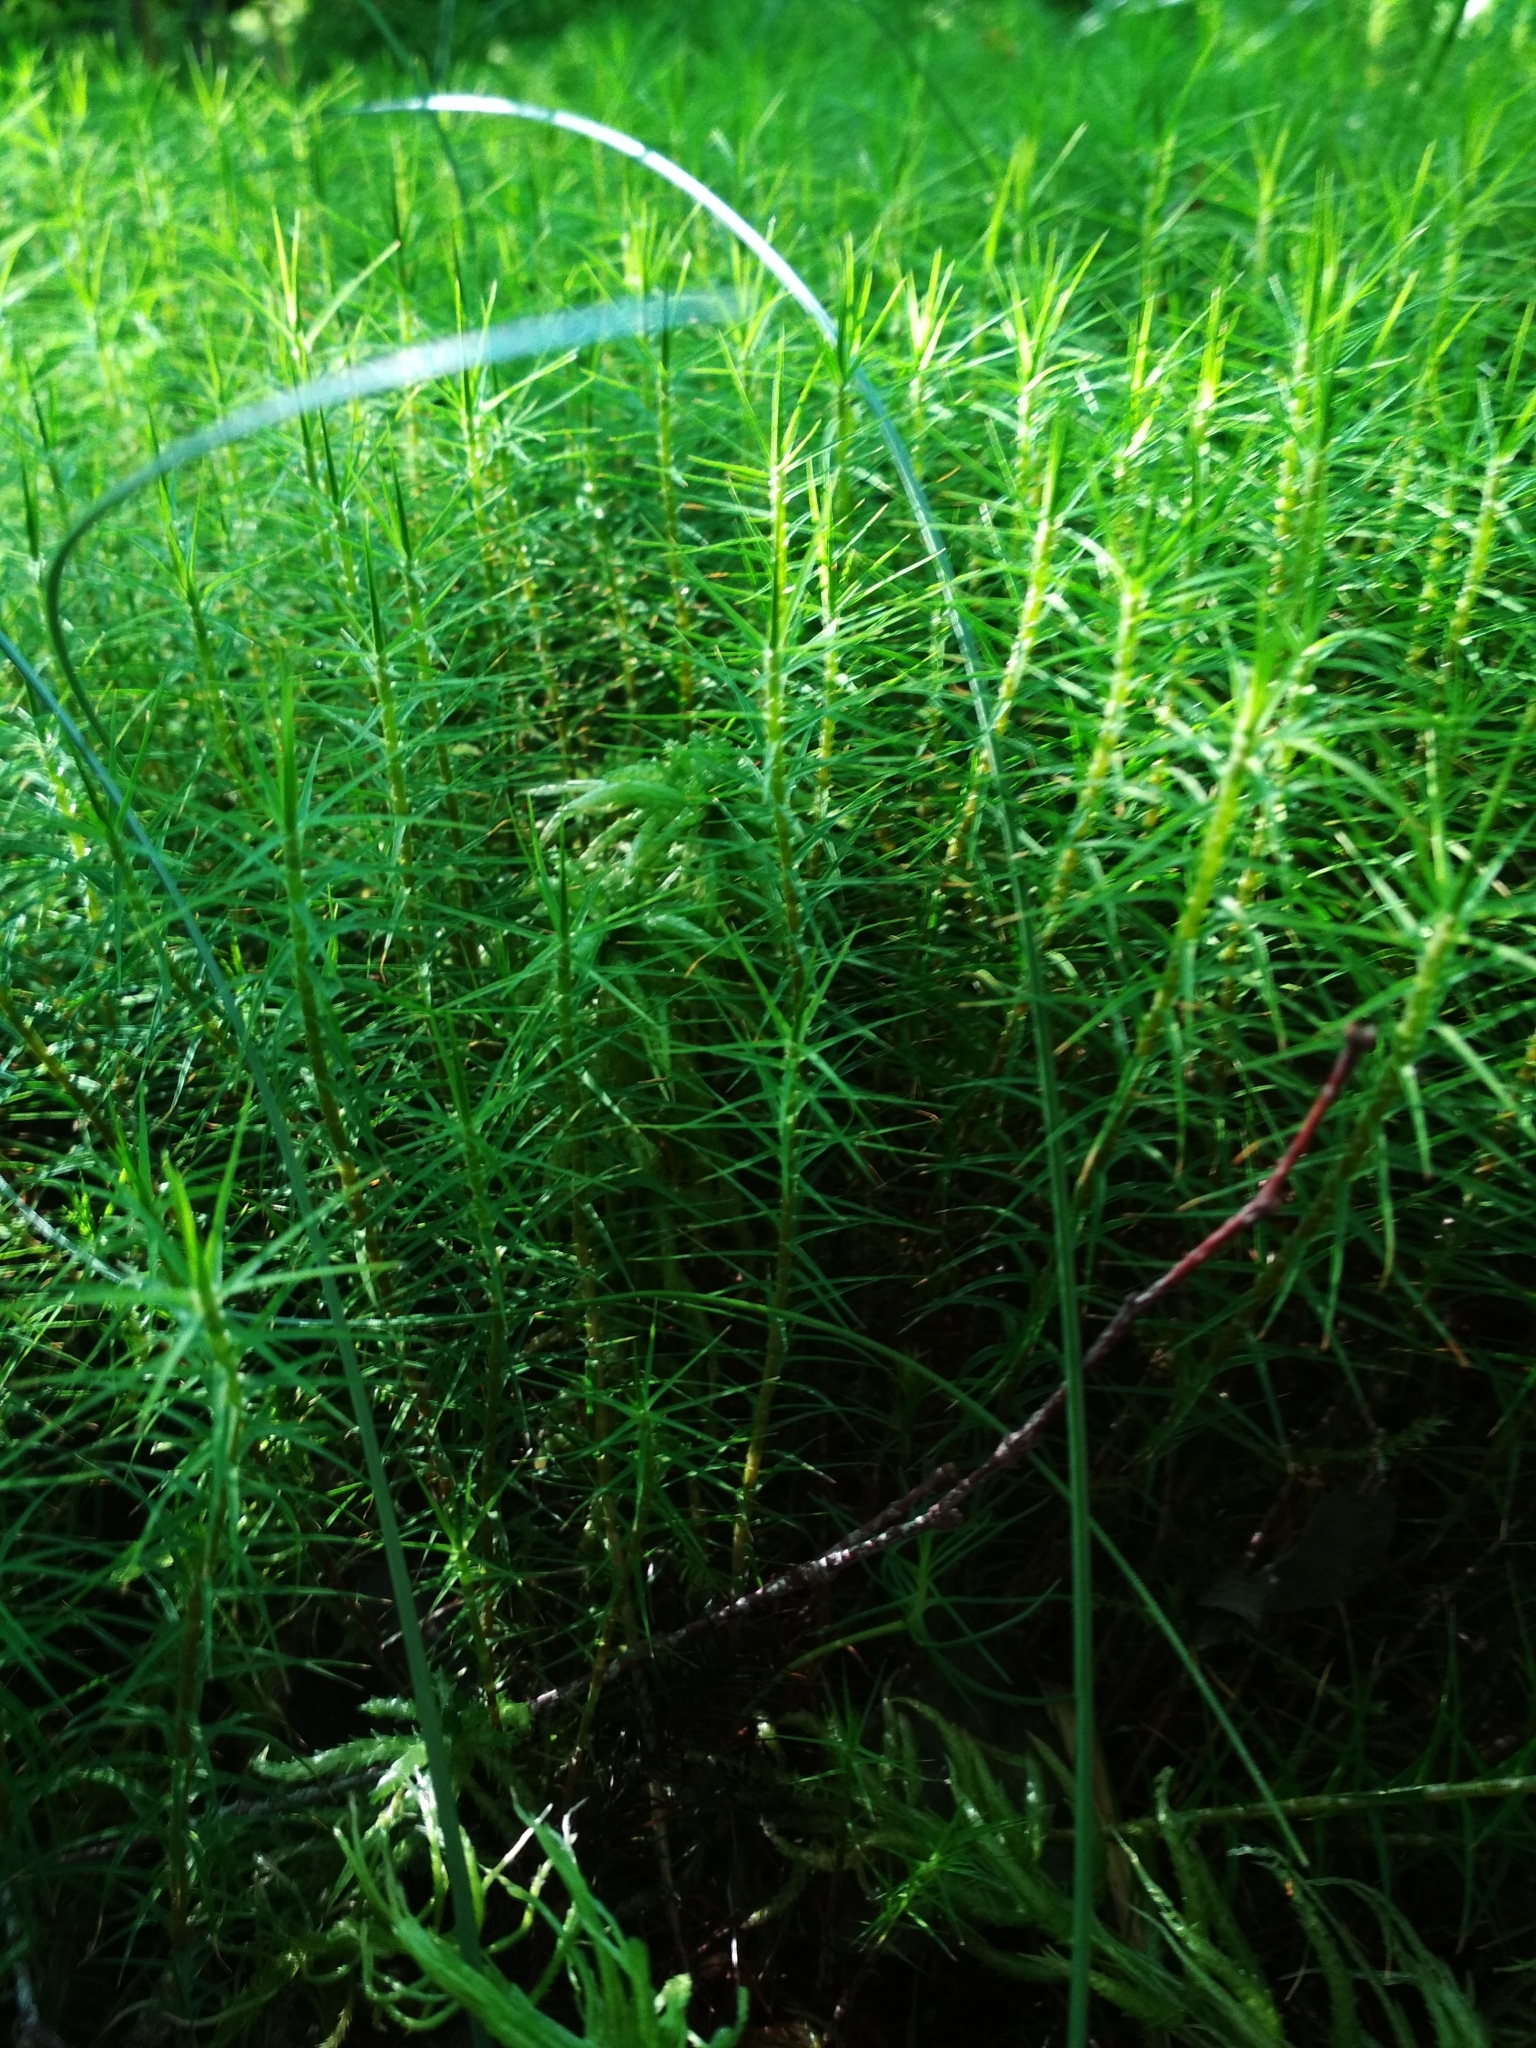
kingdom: Plantae
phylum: Bryophyta
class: Polytrichopsida
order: Polytrichales
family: Polytrichaceae
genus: Polytrichum
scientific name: Polytrichum commune
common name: Common haircap
